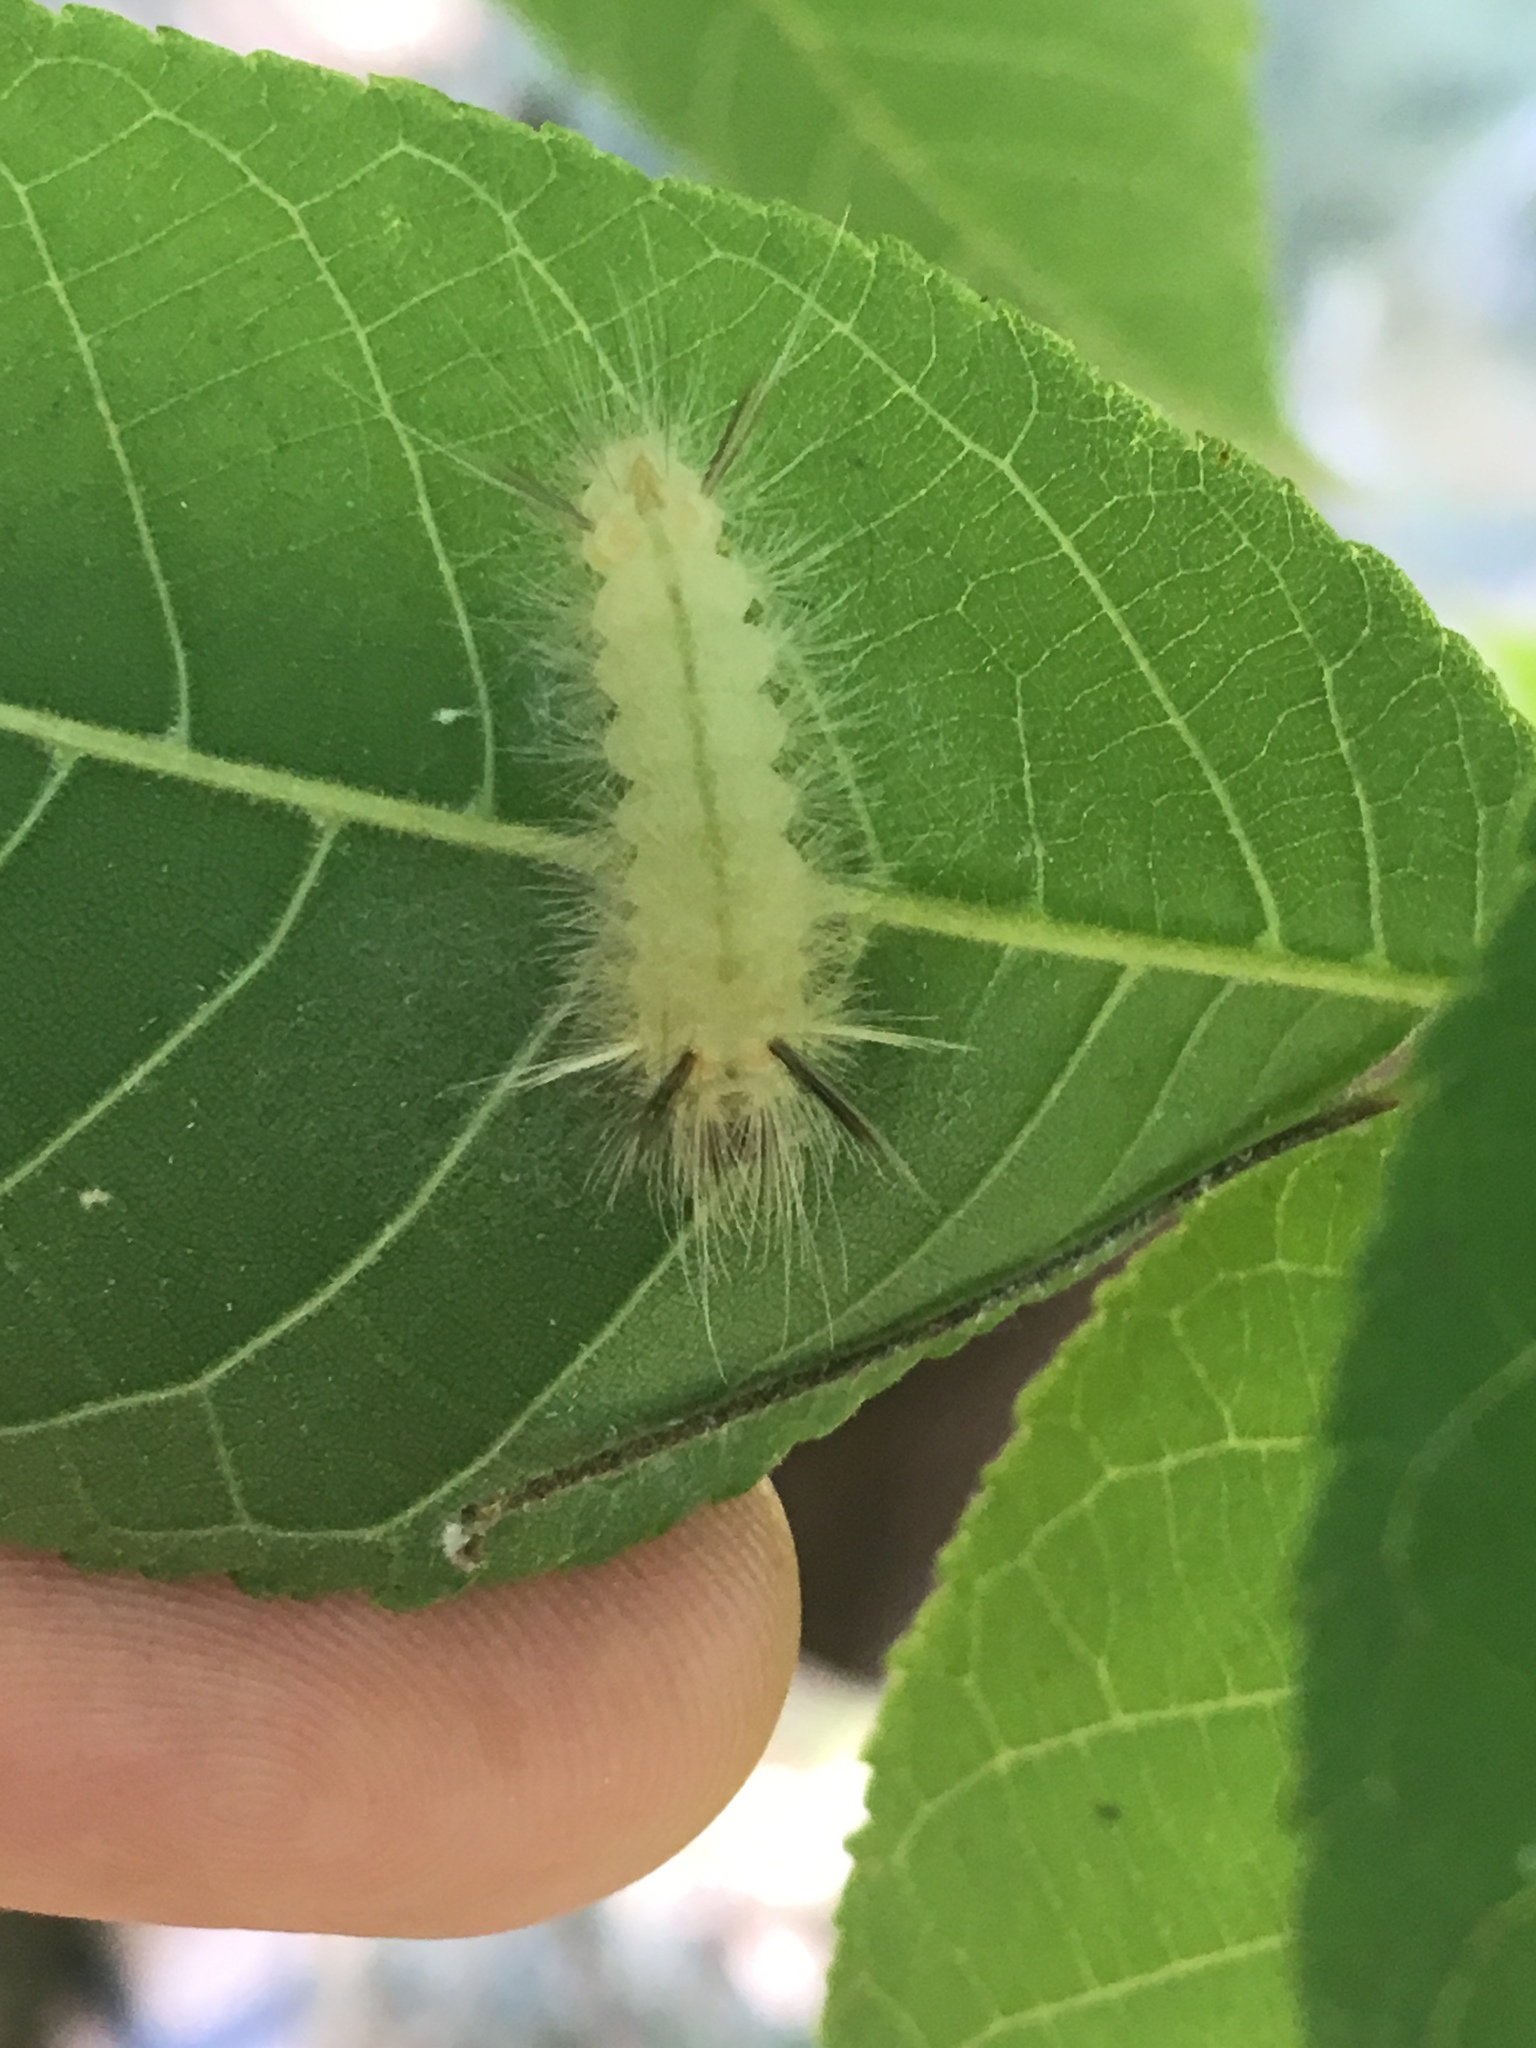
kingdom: Animalia
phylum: Arthropoda
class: Insecta
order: Lepidoptera
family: Erebidae
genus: Halysidota
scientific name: Halysidota tessellaris
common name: Banded tussock moth
